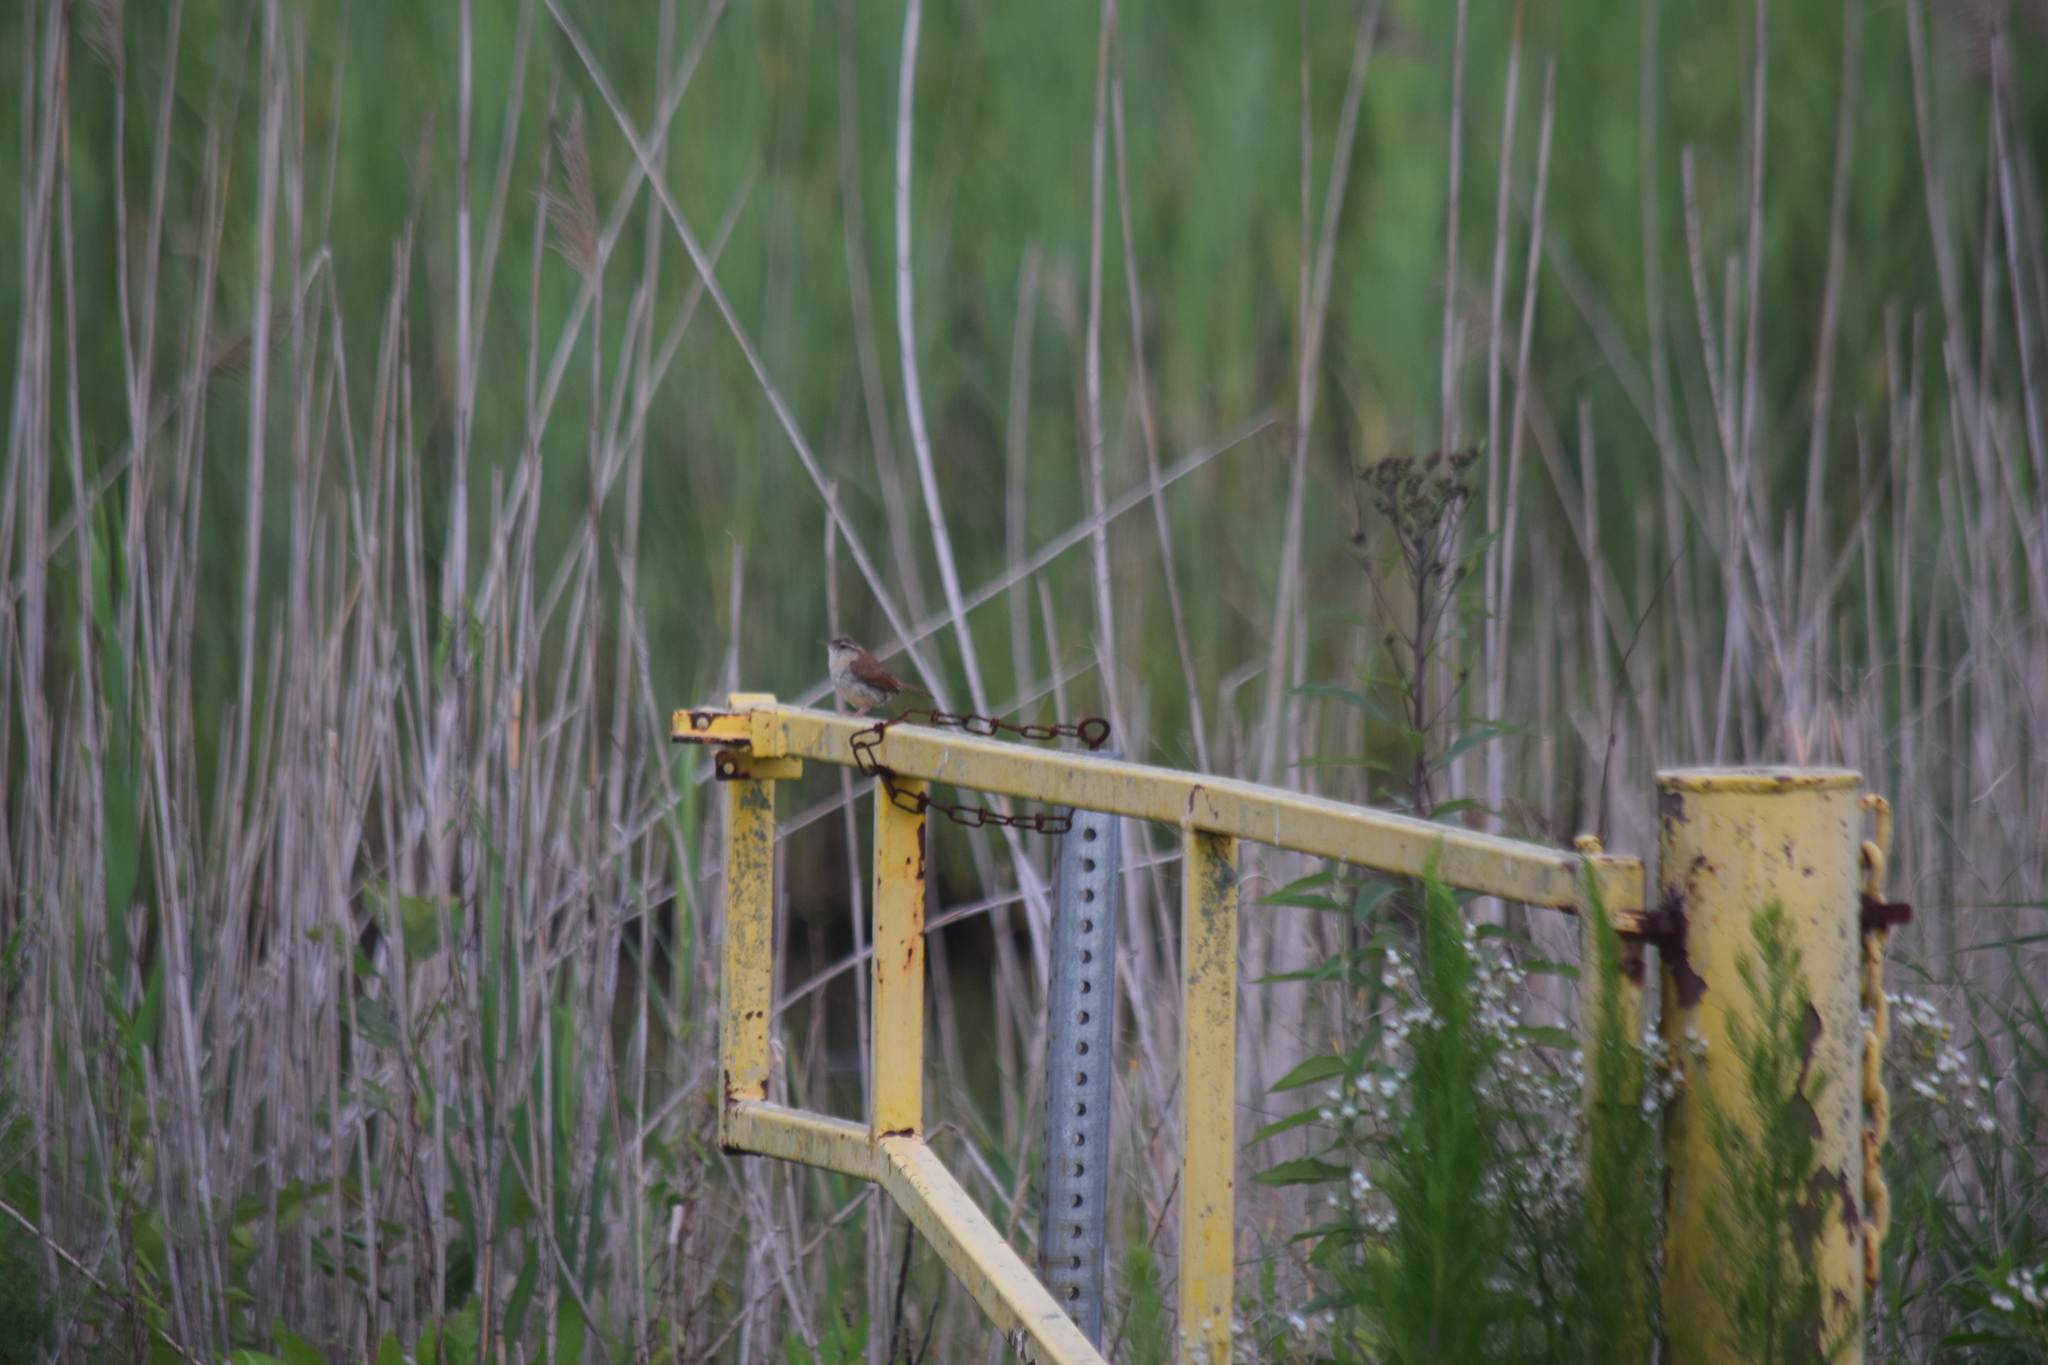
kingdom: Animalia
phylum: Chordata
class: Aves
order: Passeriformes
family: Troglodytidae
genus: Thryothorus
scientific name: Thryothorus ludovicianus
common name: Carolina wren
